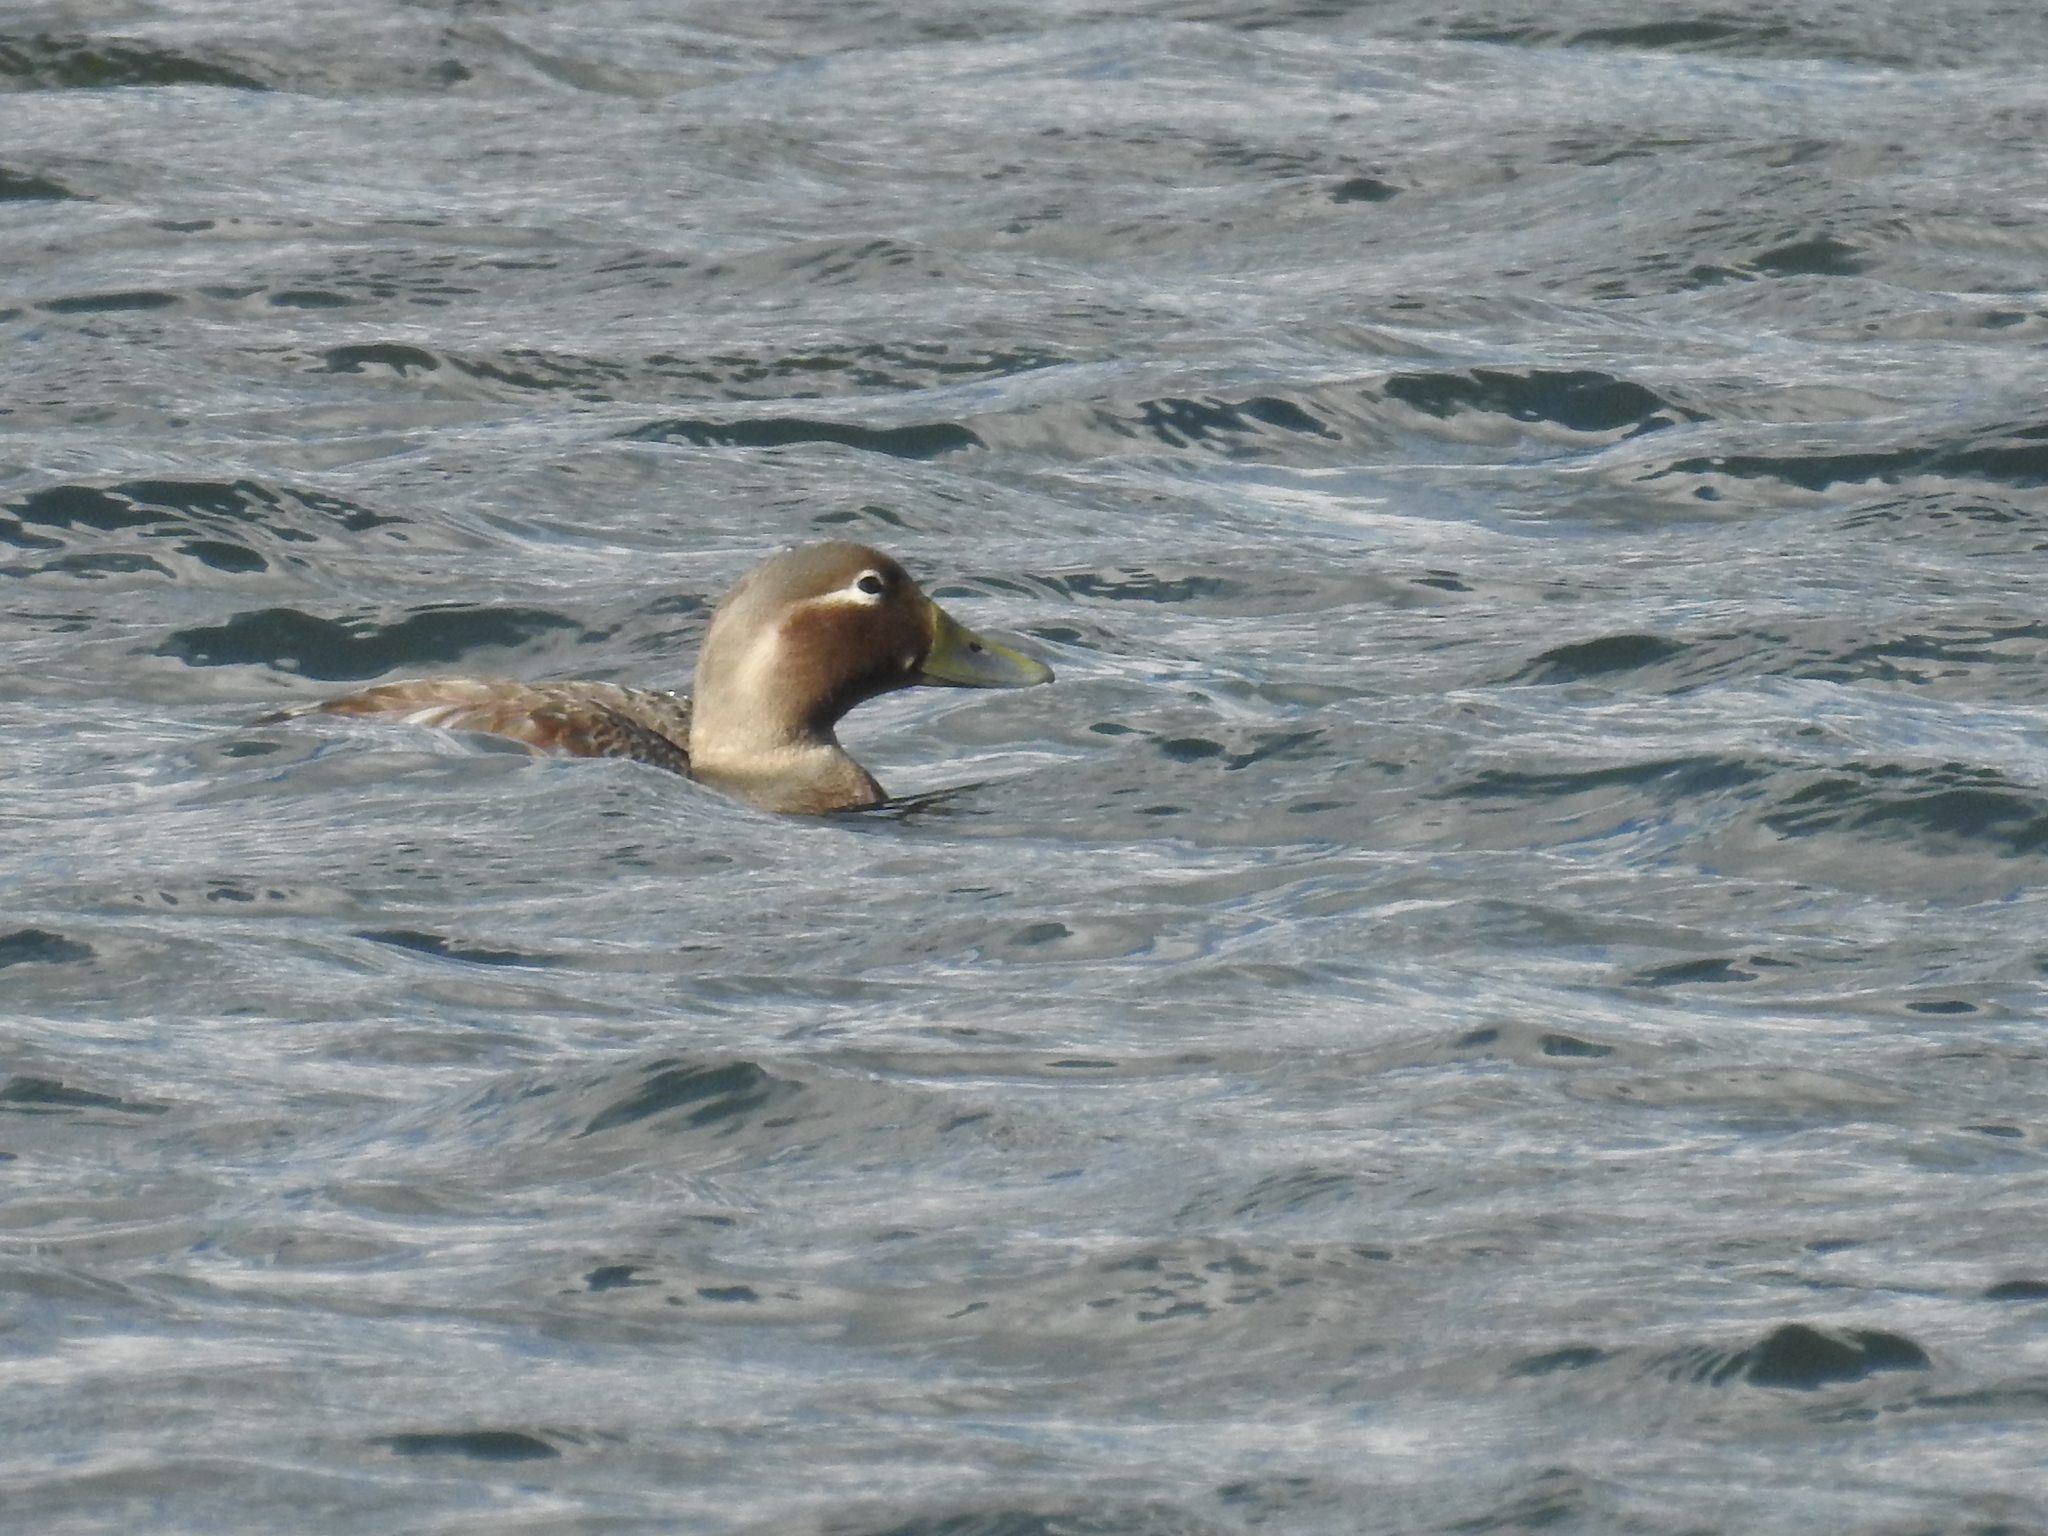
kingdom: Animalia
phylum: Chordata
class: Aves
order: Anseriformes
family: Anatidae
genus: Tachyeres
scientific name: Tachyeres patachonicus
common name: Flying steamer duck
